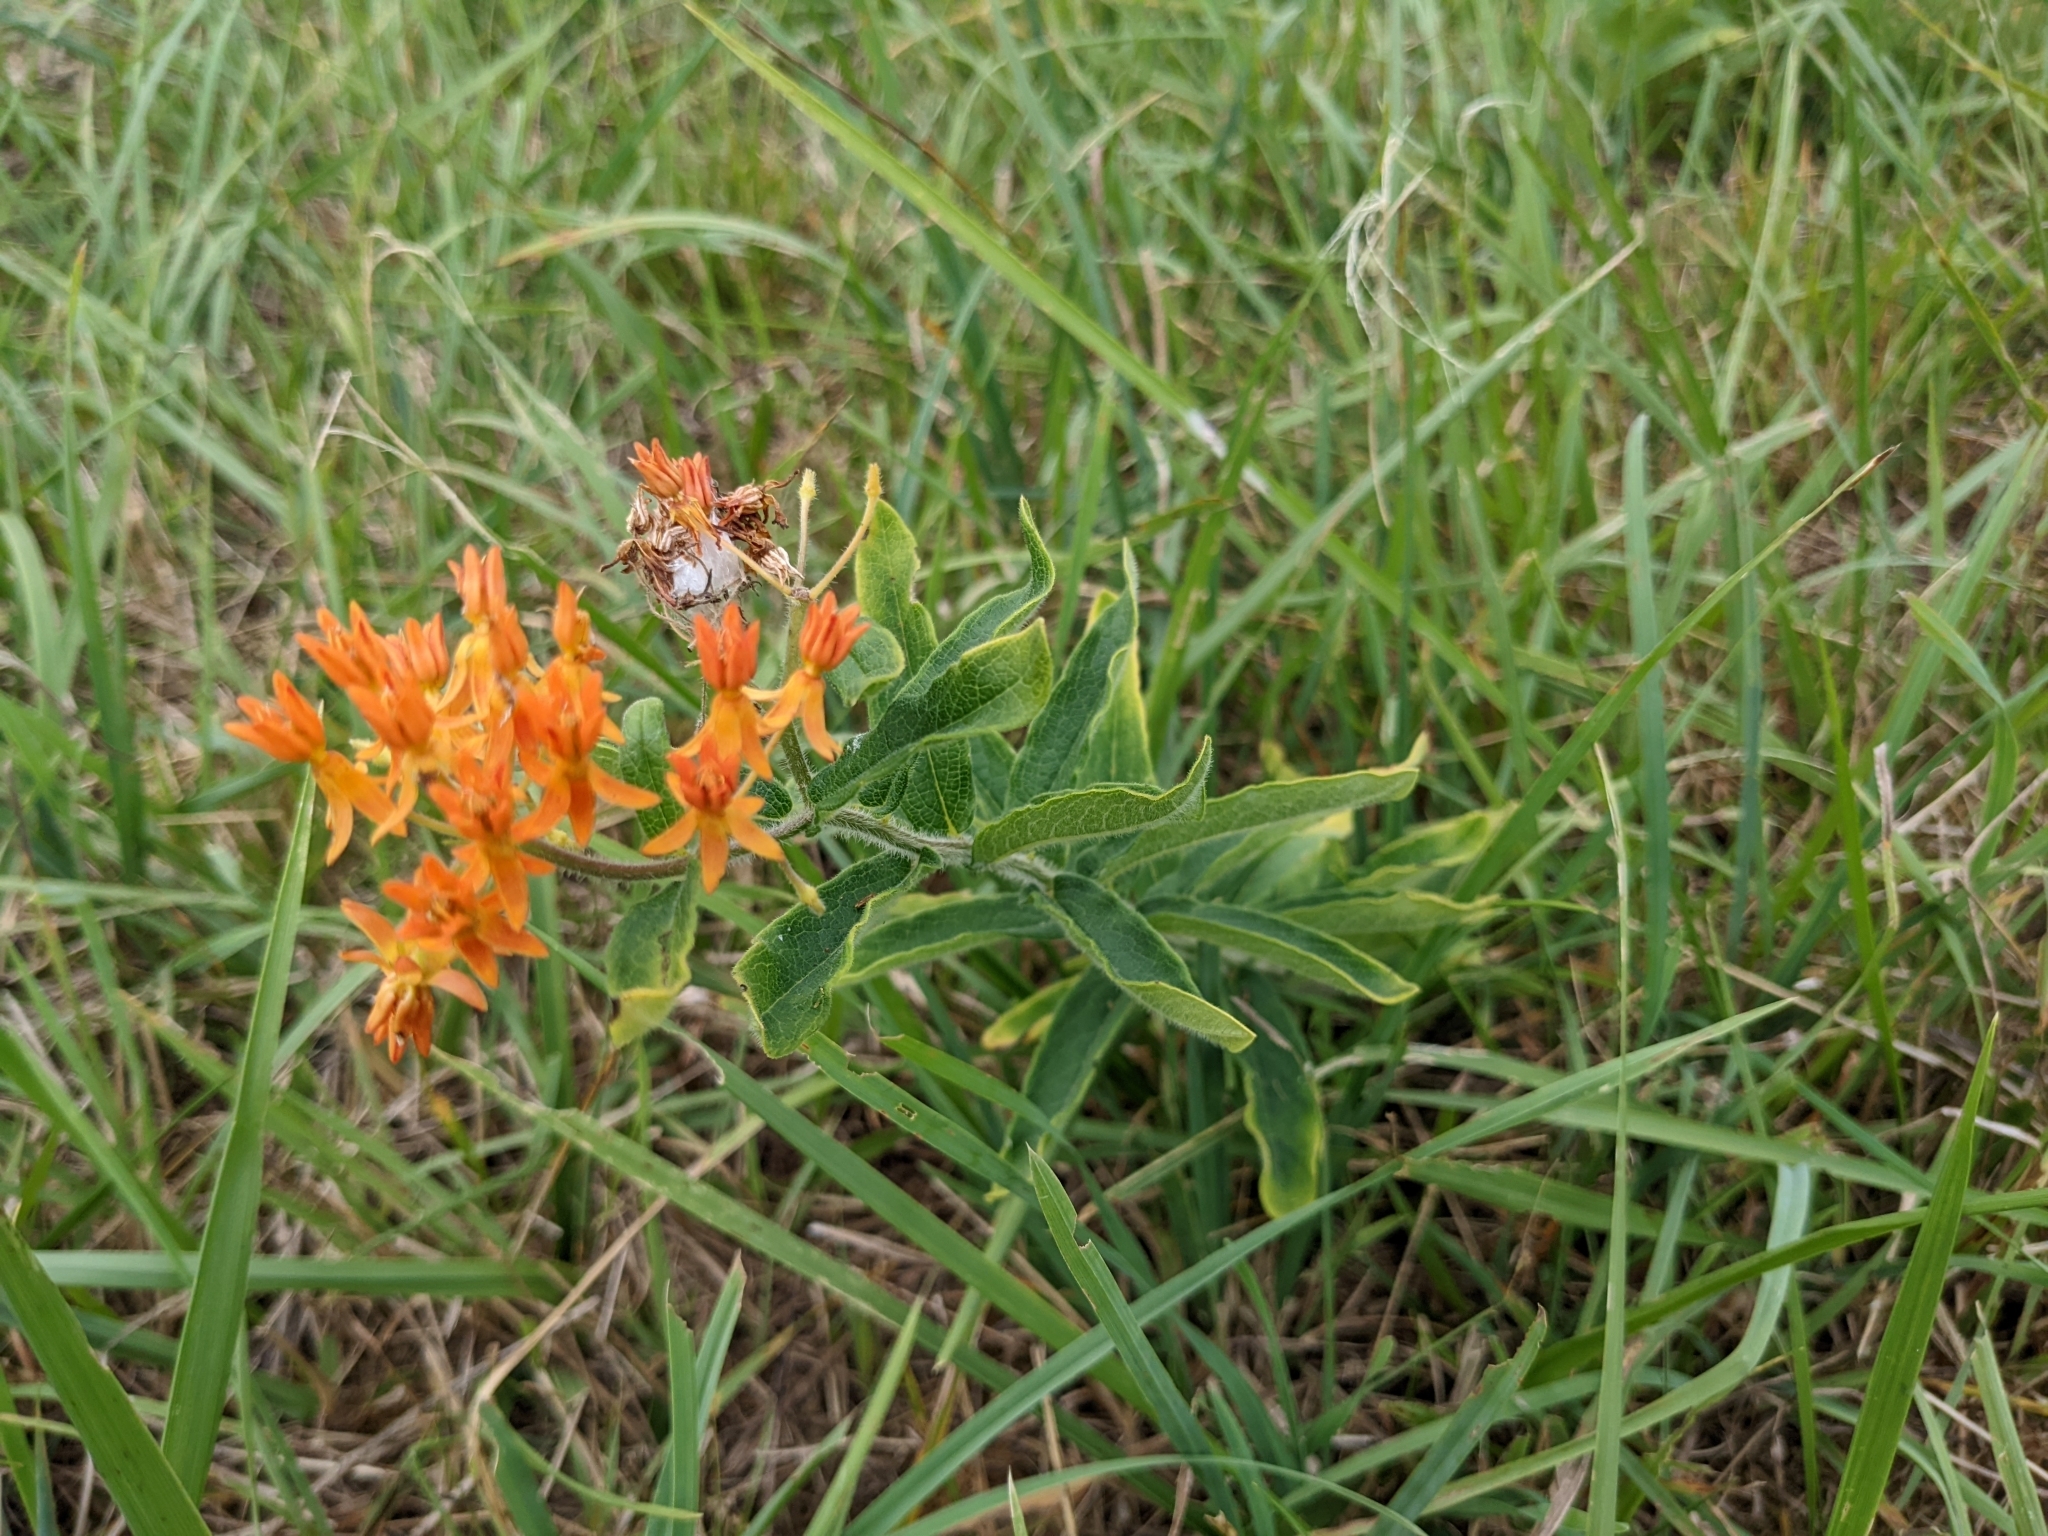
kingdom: Plantae
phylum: Tracheophyta
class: Magnoliopsida
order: Gentianales
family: Apocynaceae
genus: Asclepias
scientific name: Asclepias tuberosa
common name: Butterfly milkweed
